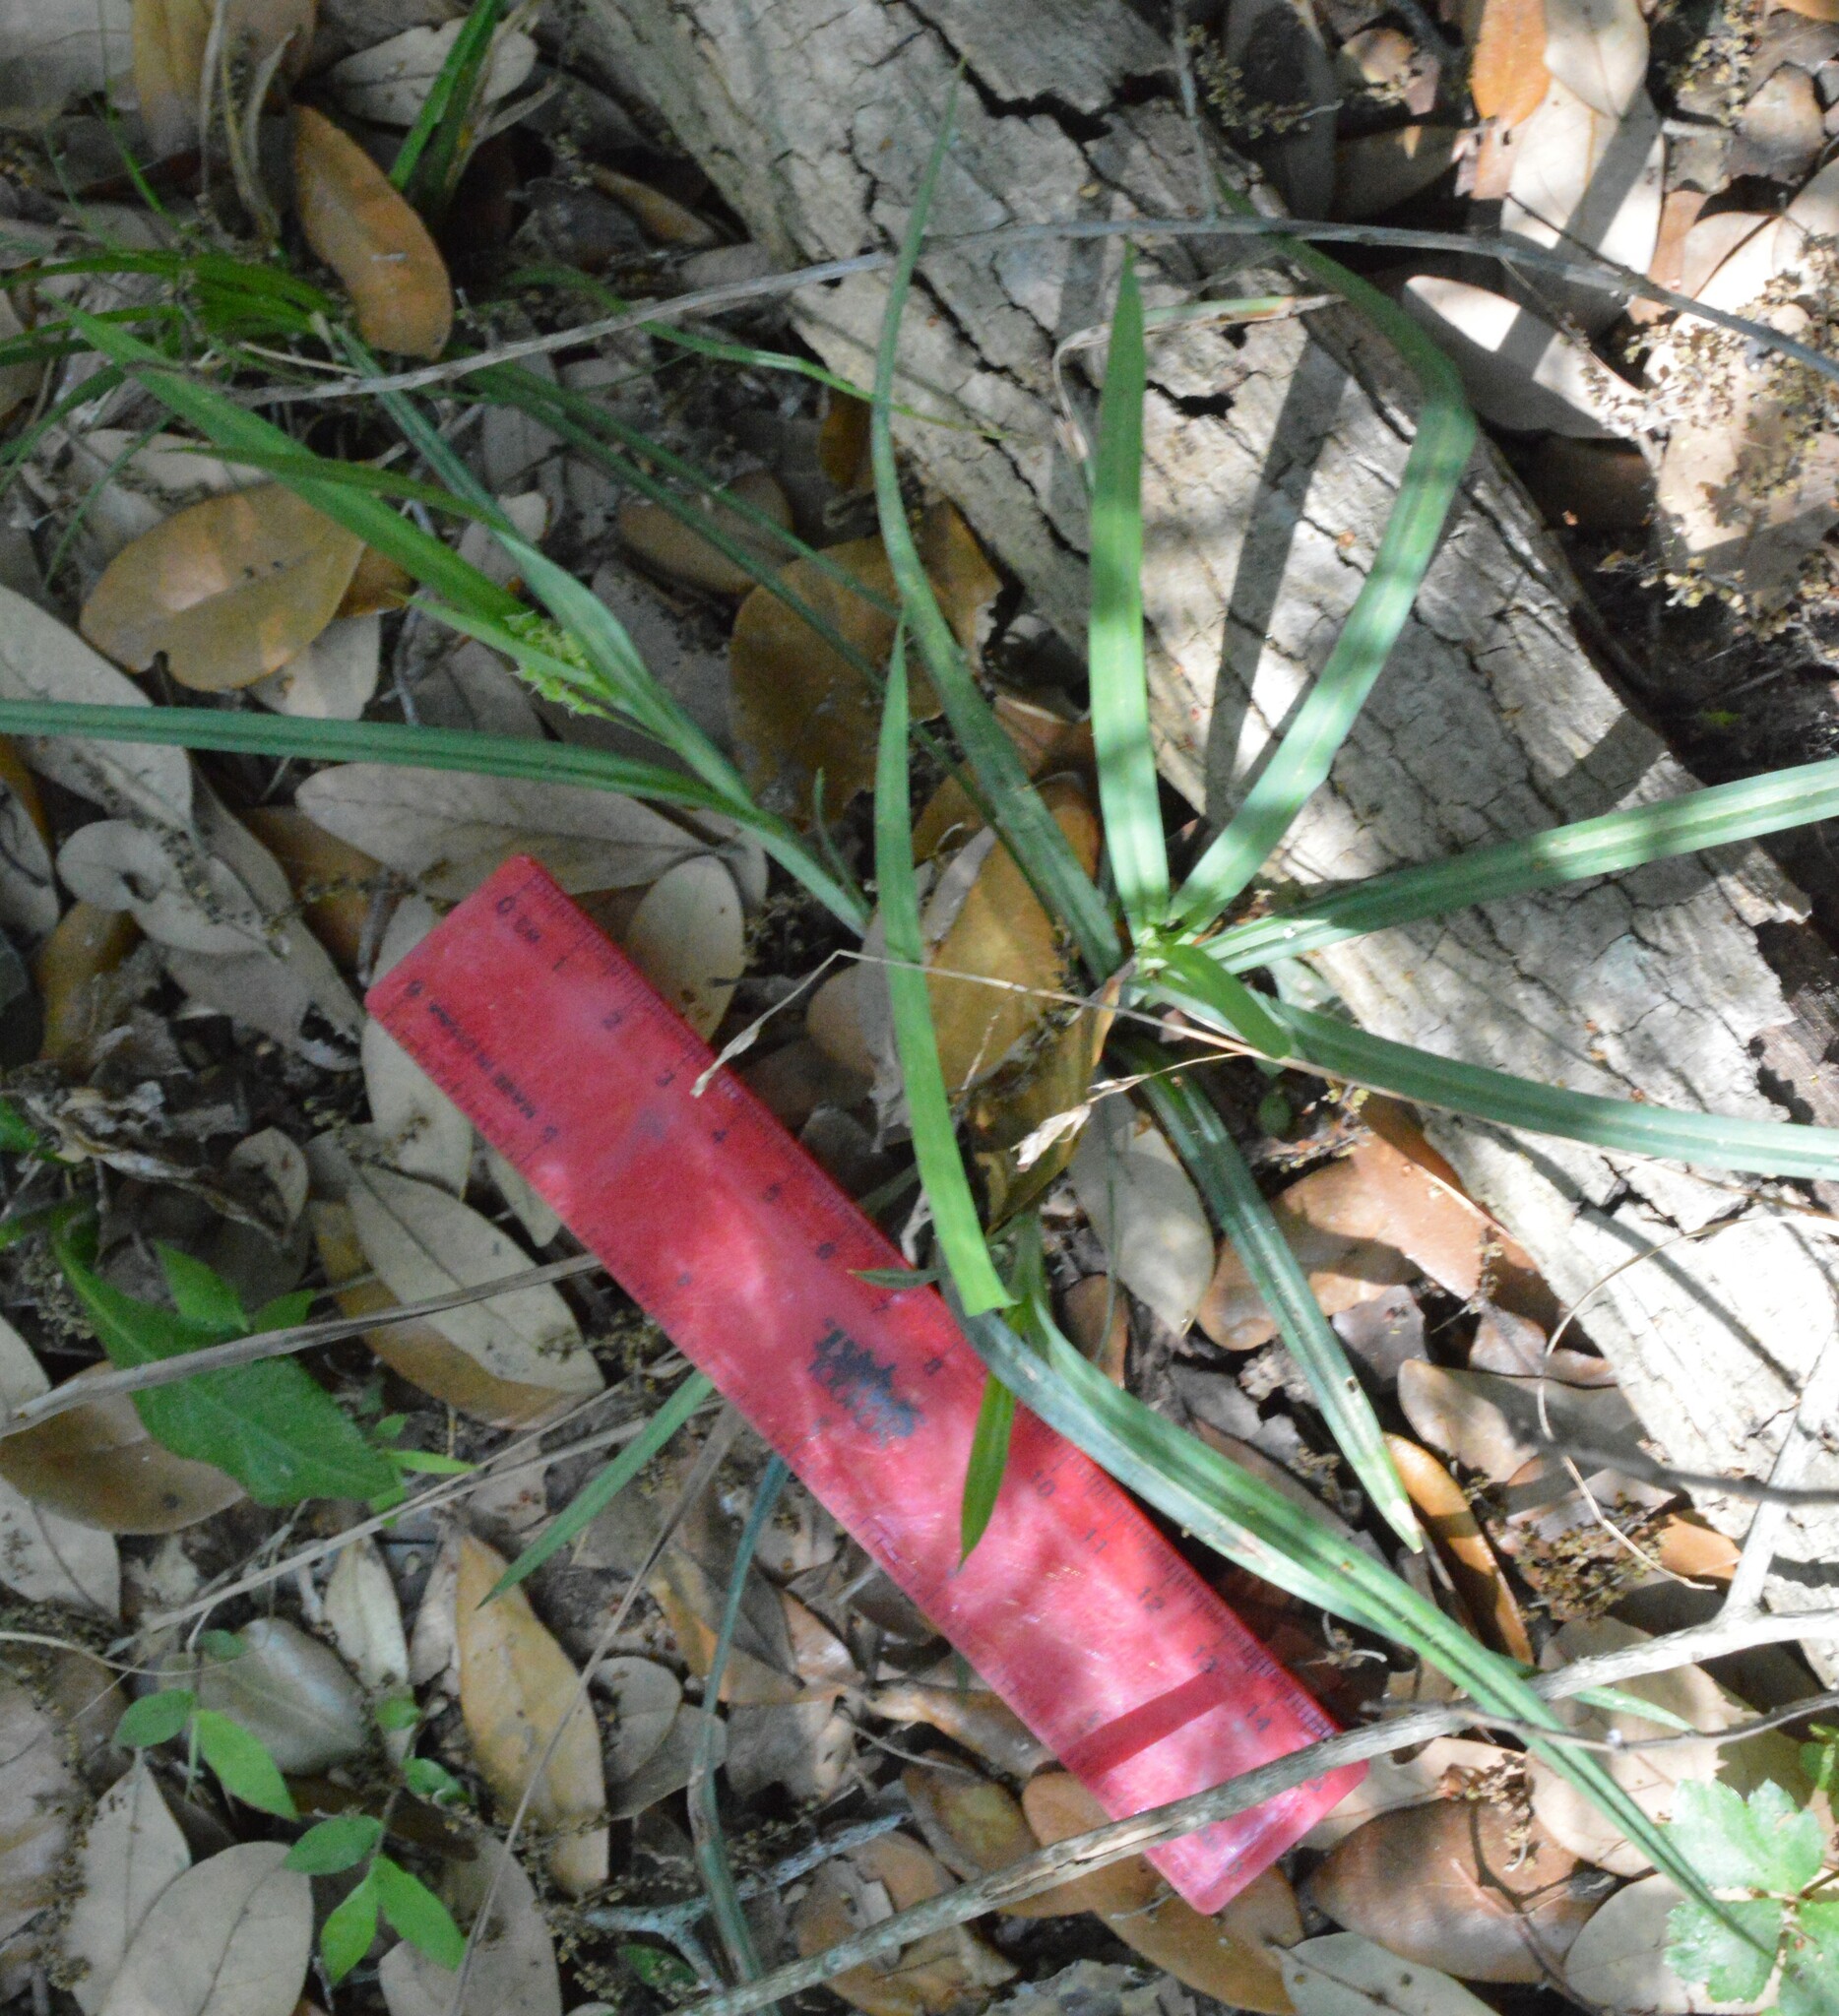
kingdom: Plantae
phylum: Tracheophyta
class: Liliopsida
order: Poales
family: Cyperaceae
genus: Carex
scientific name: Carex flaccosperma
